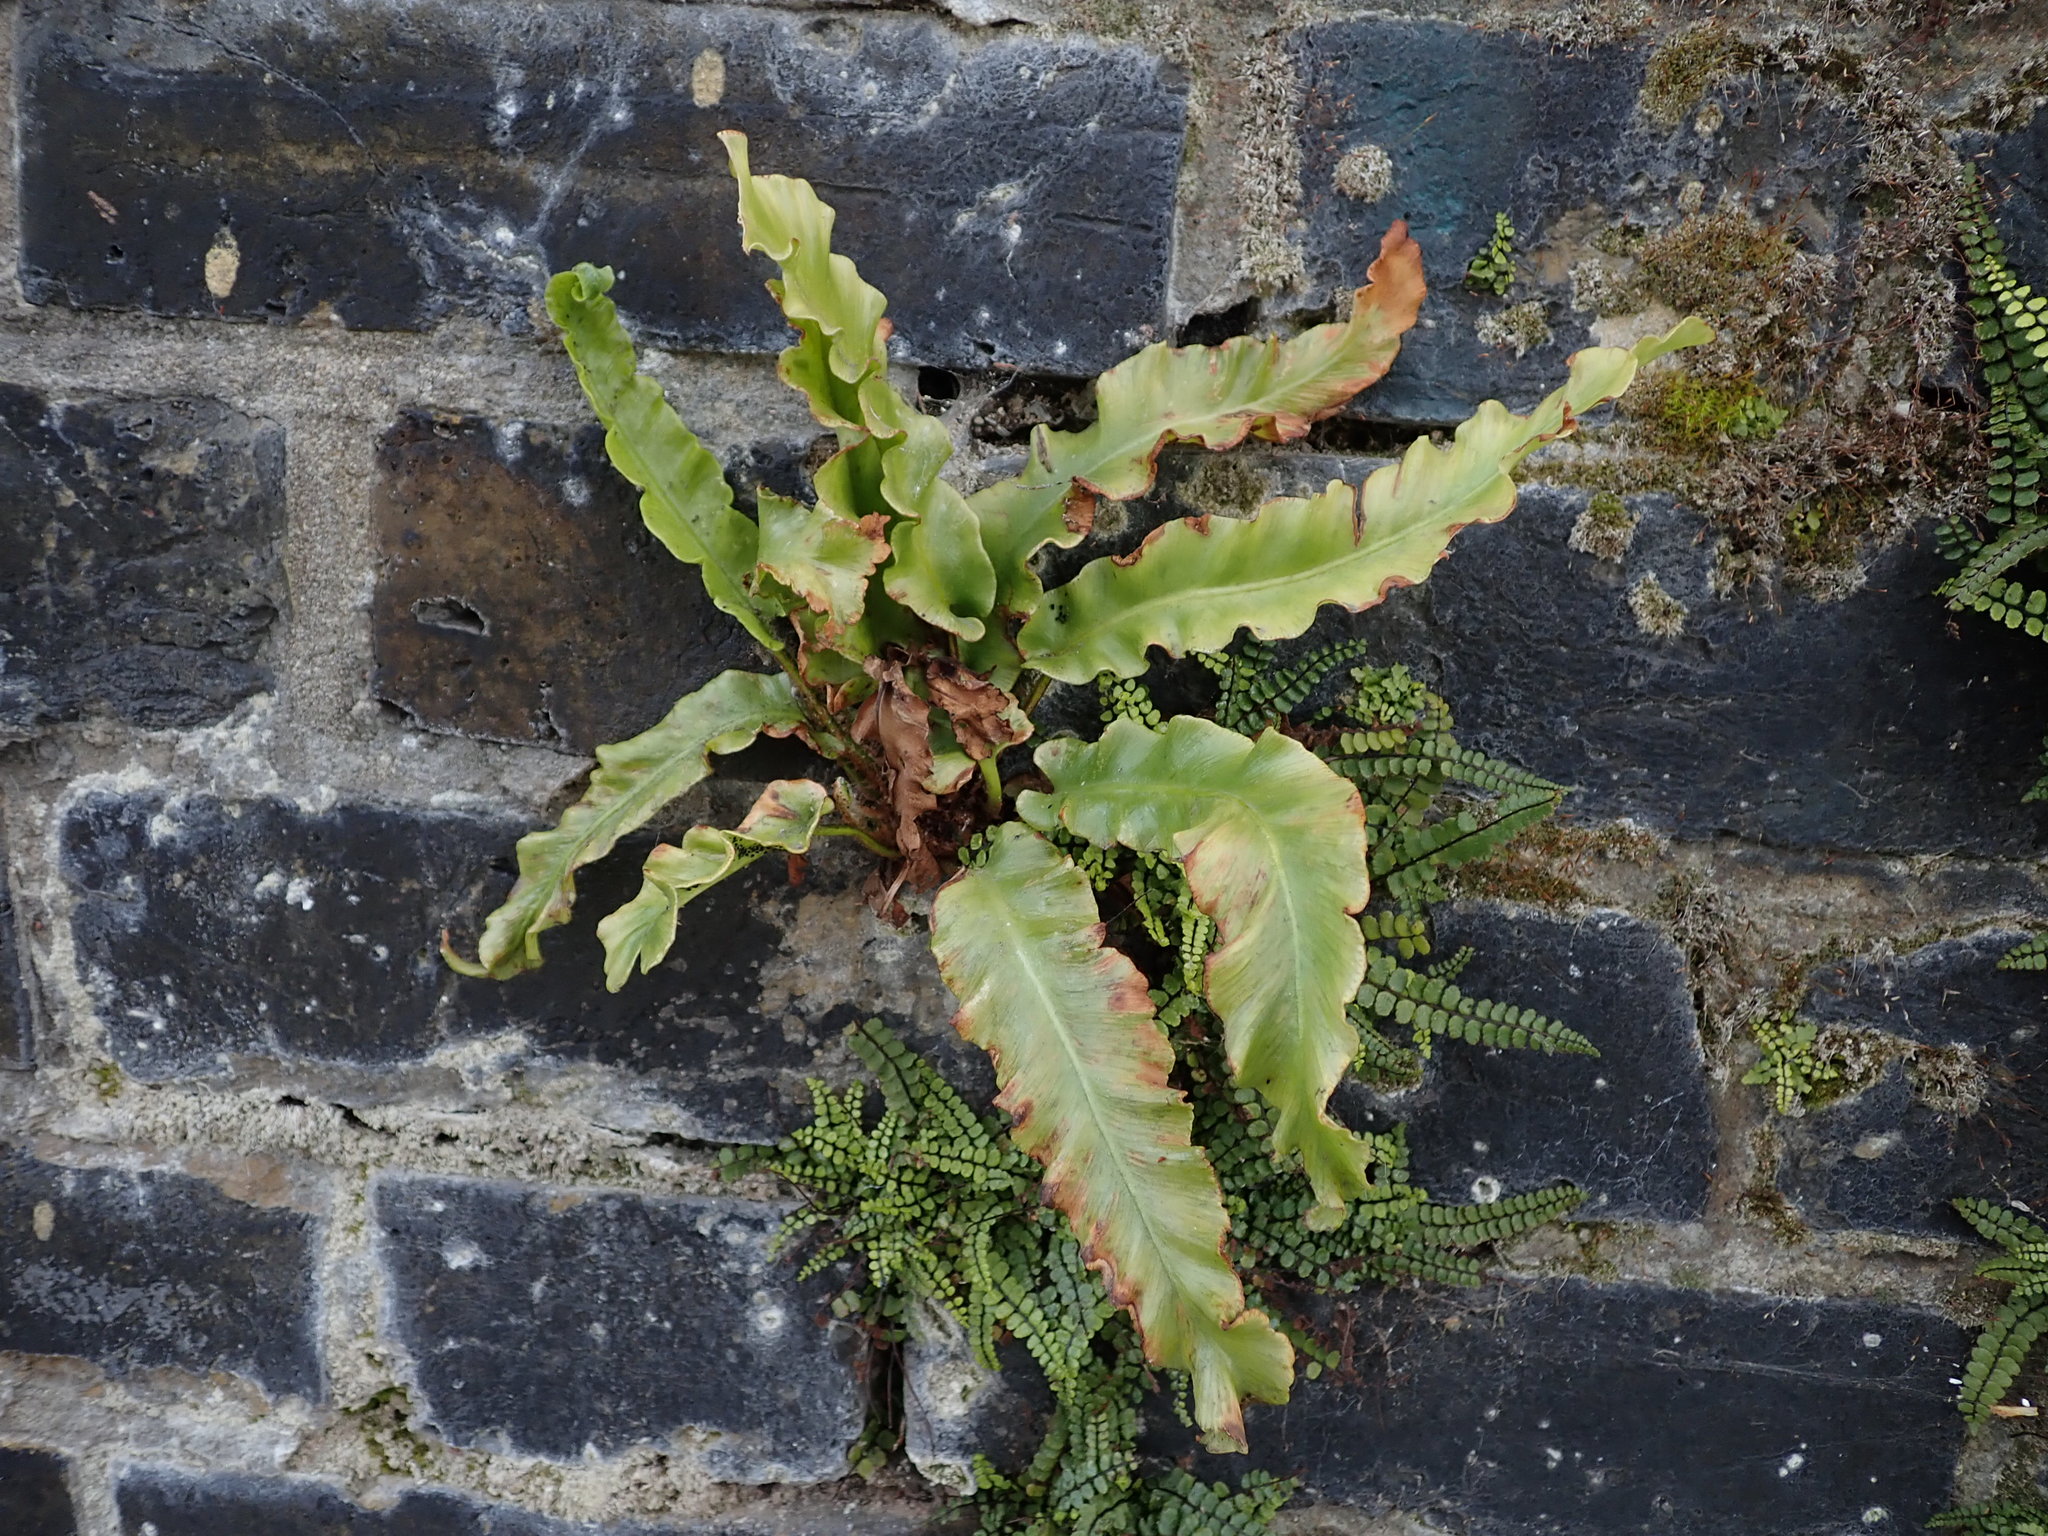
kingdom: Plantae
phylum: Tracheophyta
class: Polypodiopsida
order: Polypodiales
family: Aspleniaceae
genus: Asplenium
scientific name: Asplenium scolopendrium
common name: Hart's-tongue fern
